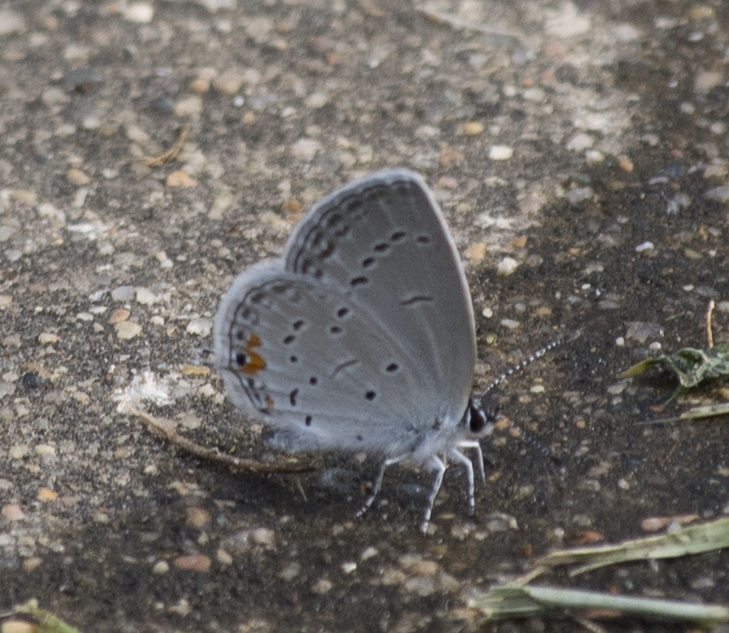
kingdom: Animalia
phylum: Arthropoda
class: Insecta
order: Lepidoptera
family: Lycaenidae
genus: Elkalyce
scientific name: Elkalyce comyntas
